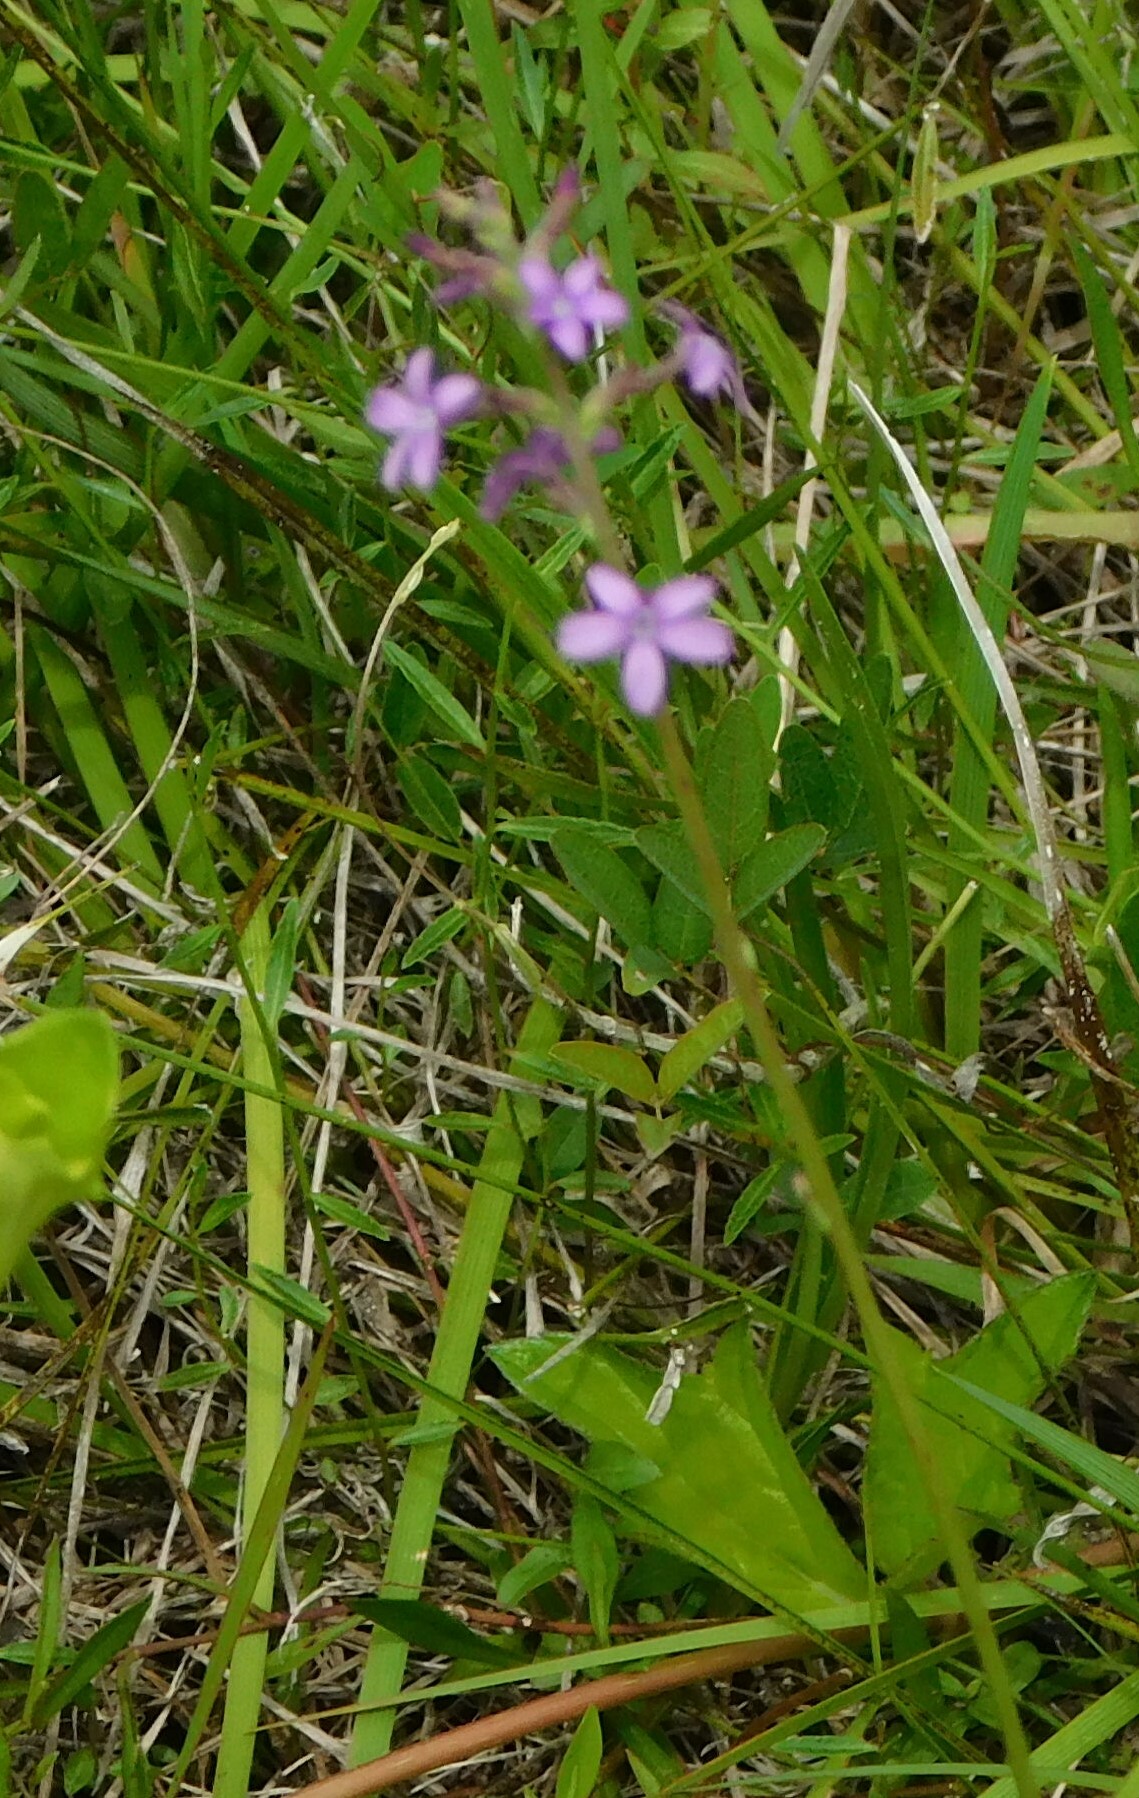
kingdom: Plantae
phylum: Tracheophyta
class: Magnoliopsida
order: Lamiales
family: Orobanchaceae
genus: Buchnera
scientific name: Buchnera floridana
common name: Florida bluehearts
